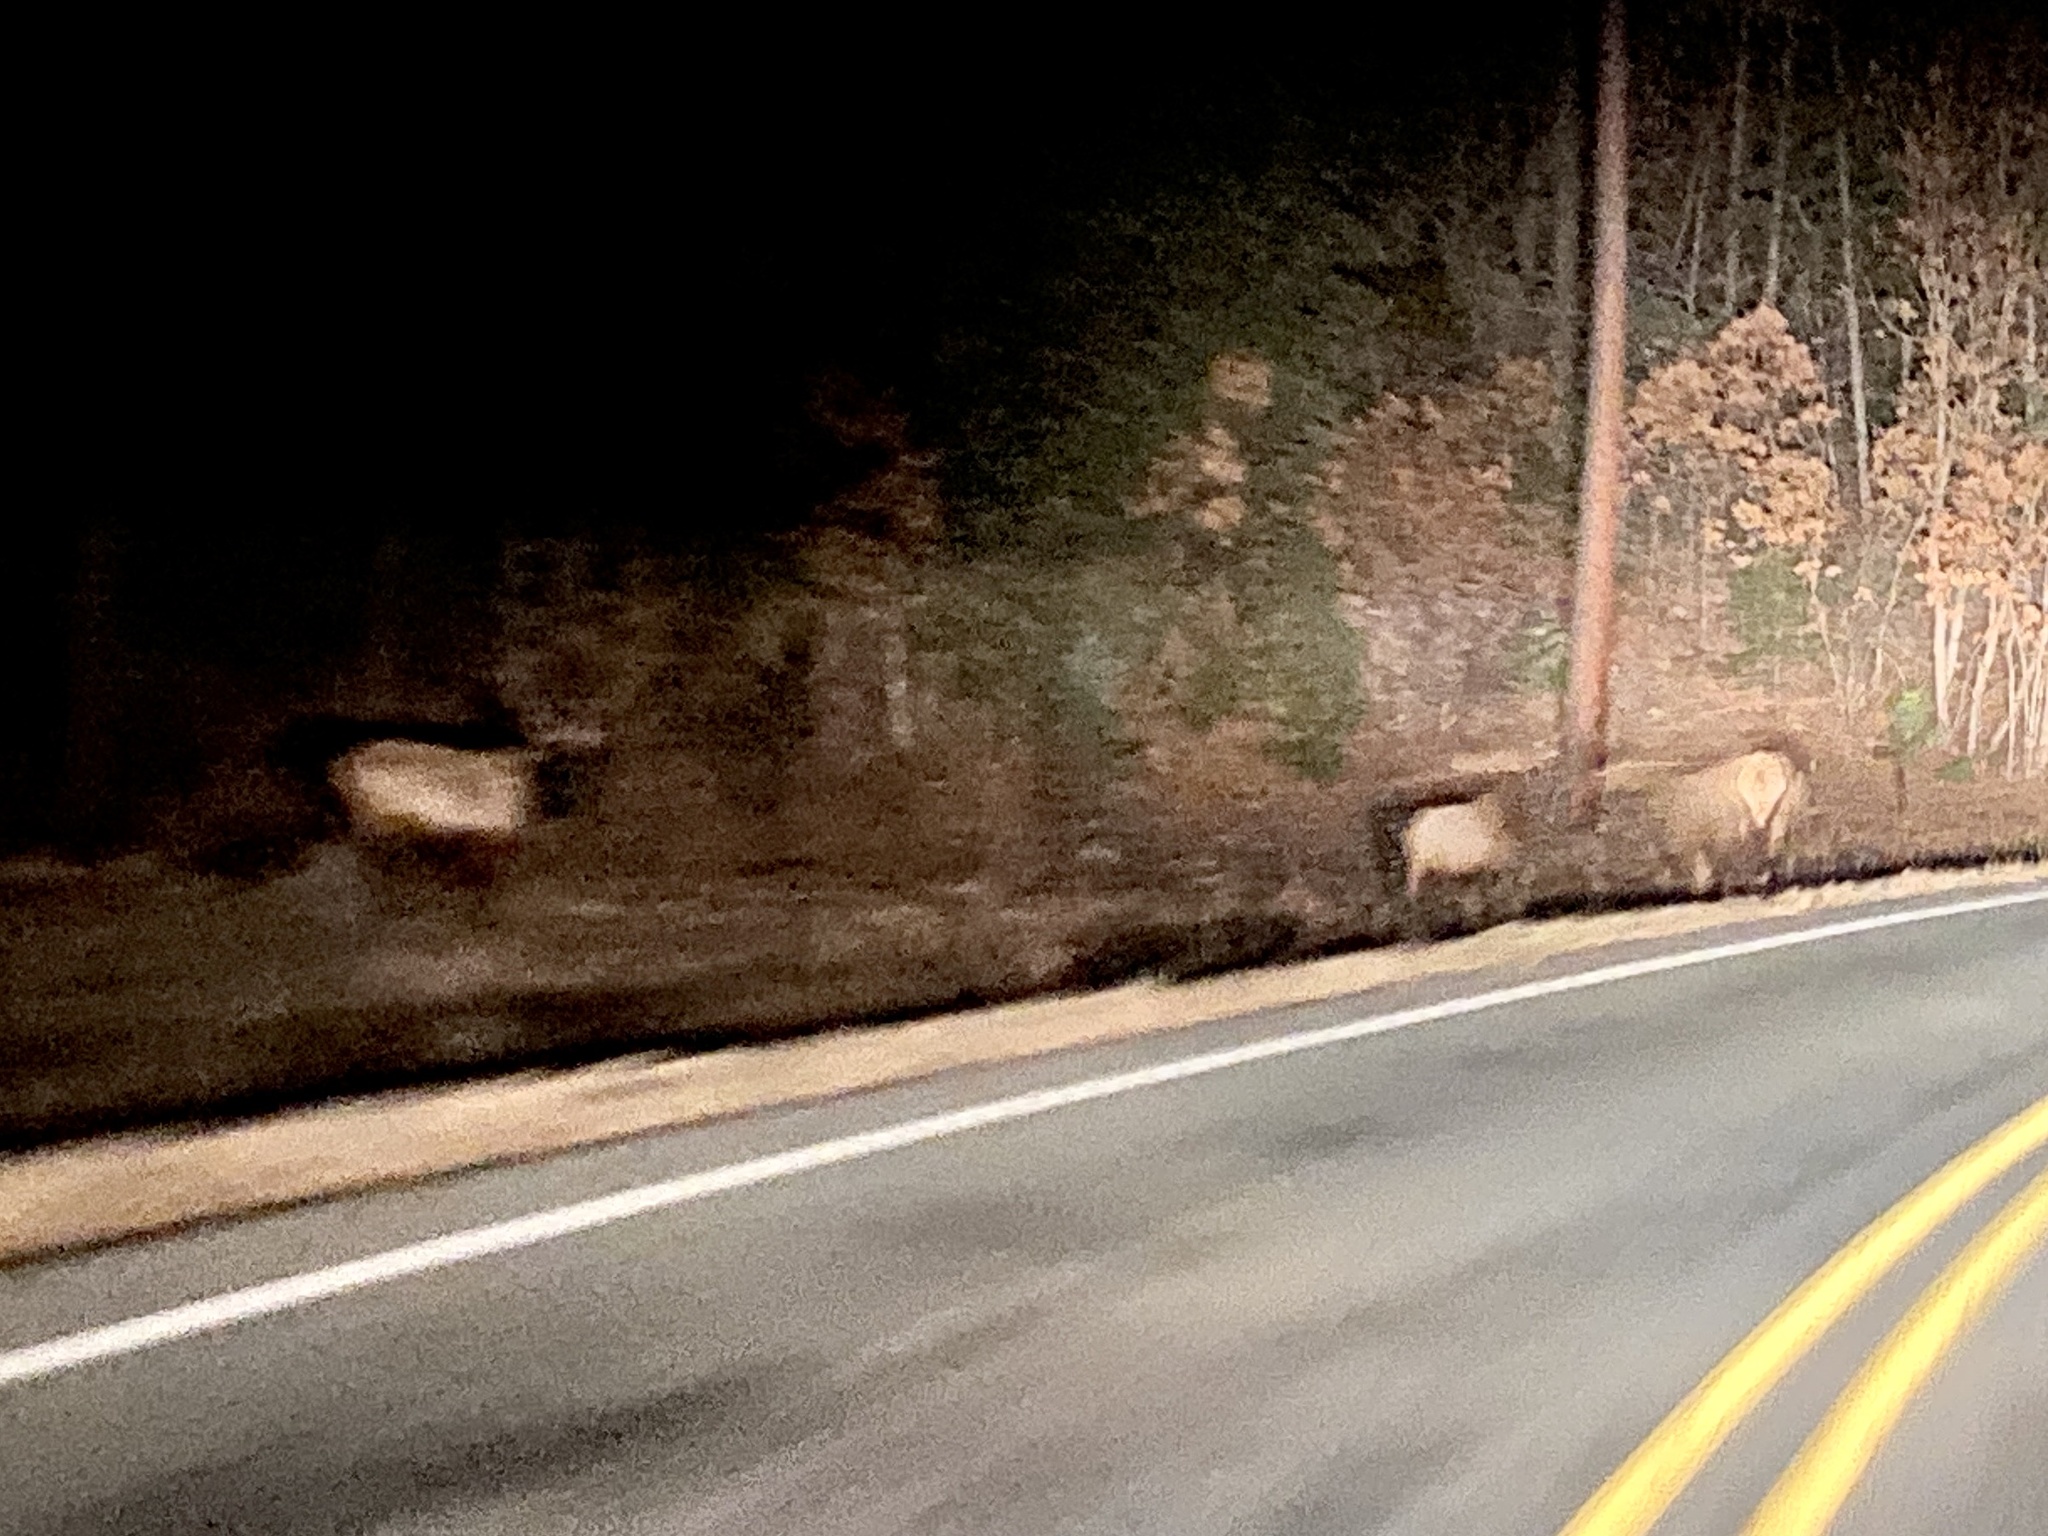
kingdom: Animalia
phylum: Chordata
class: Mammalia
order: Artiodactyla
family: Cervidae
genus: Cervus
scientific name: Cervus elaphus
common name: Red deer
